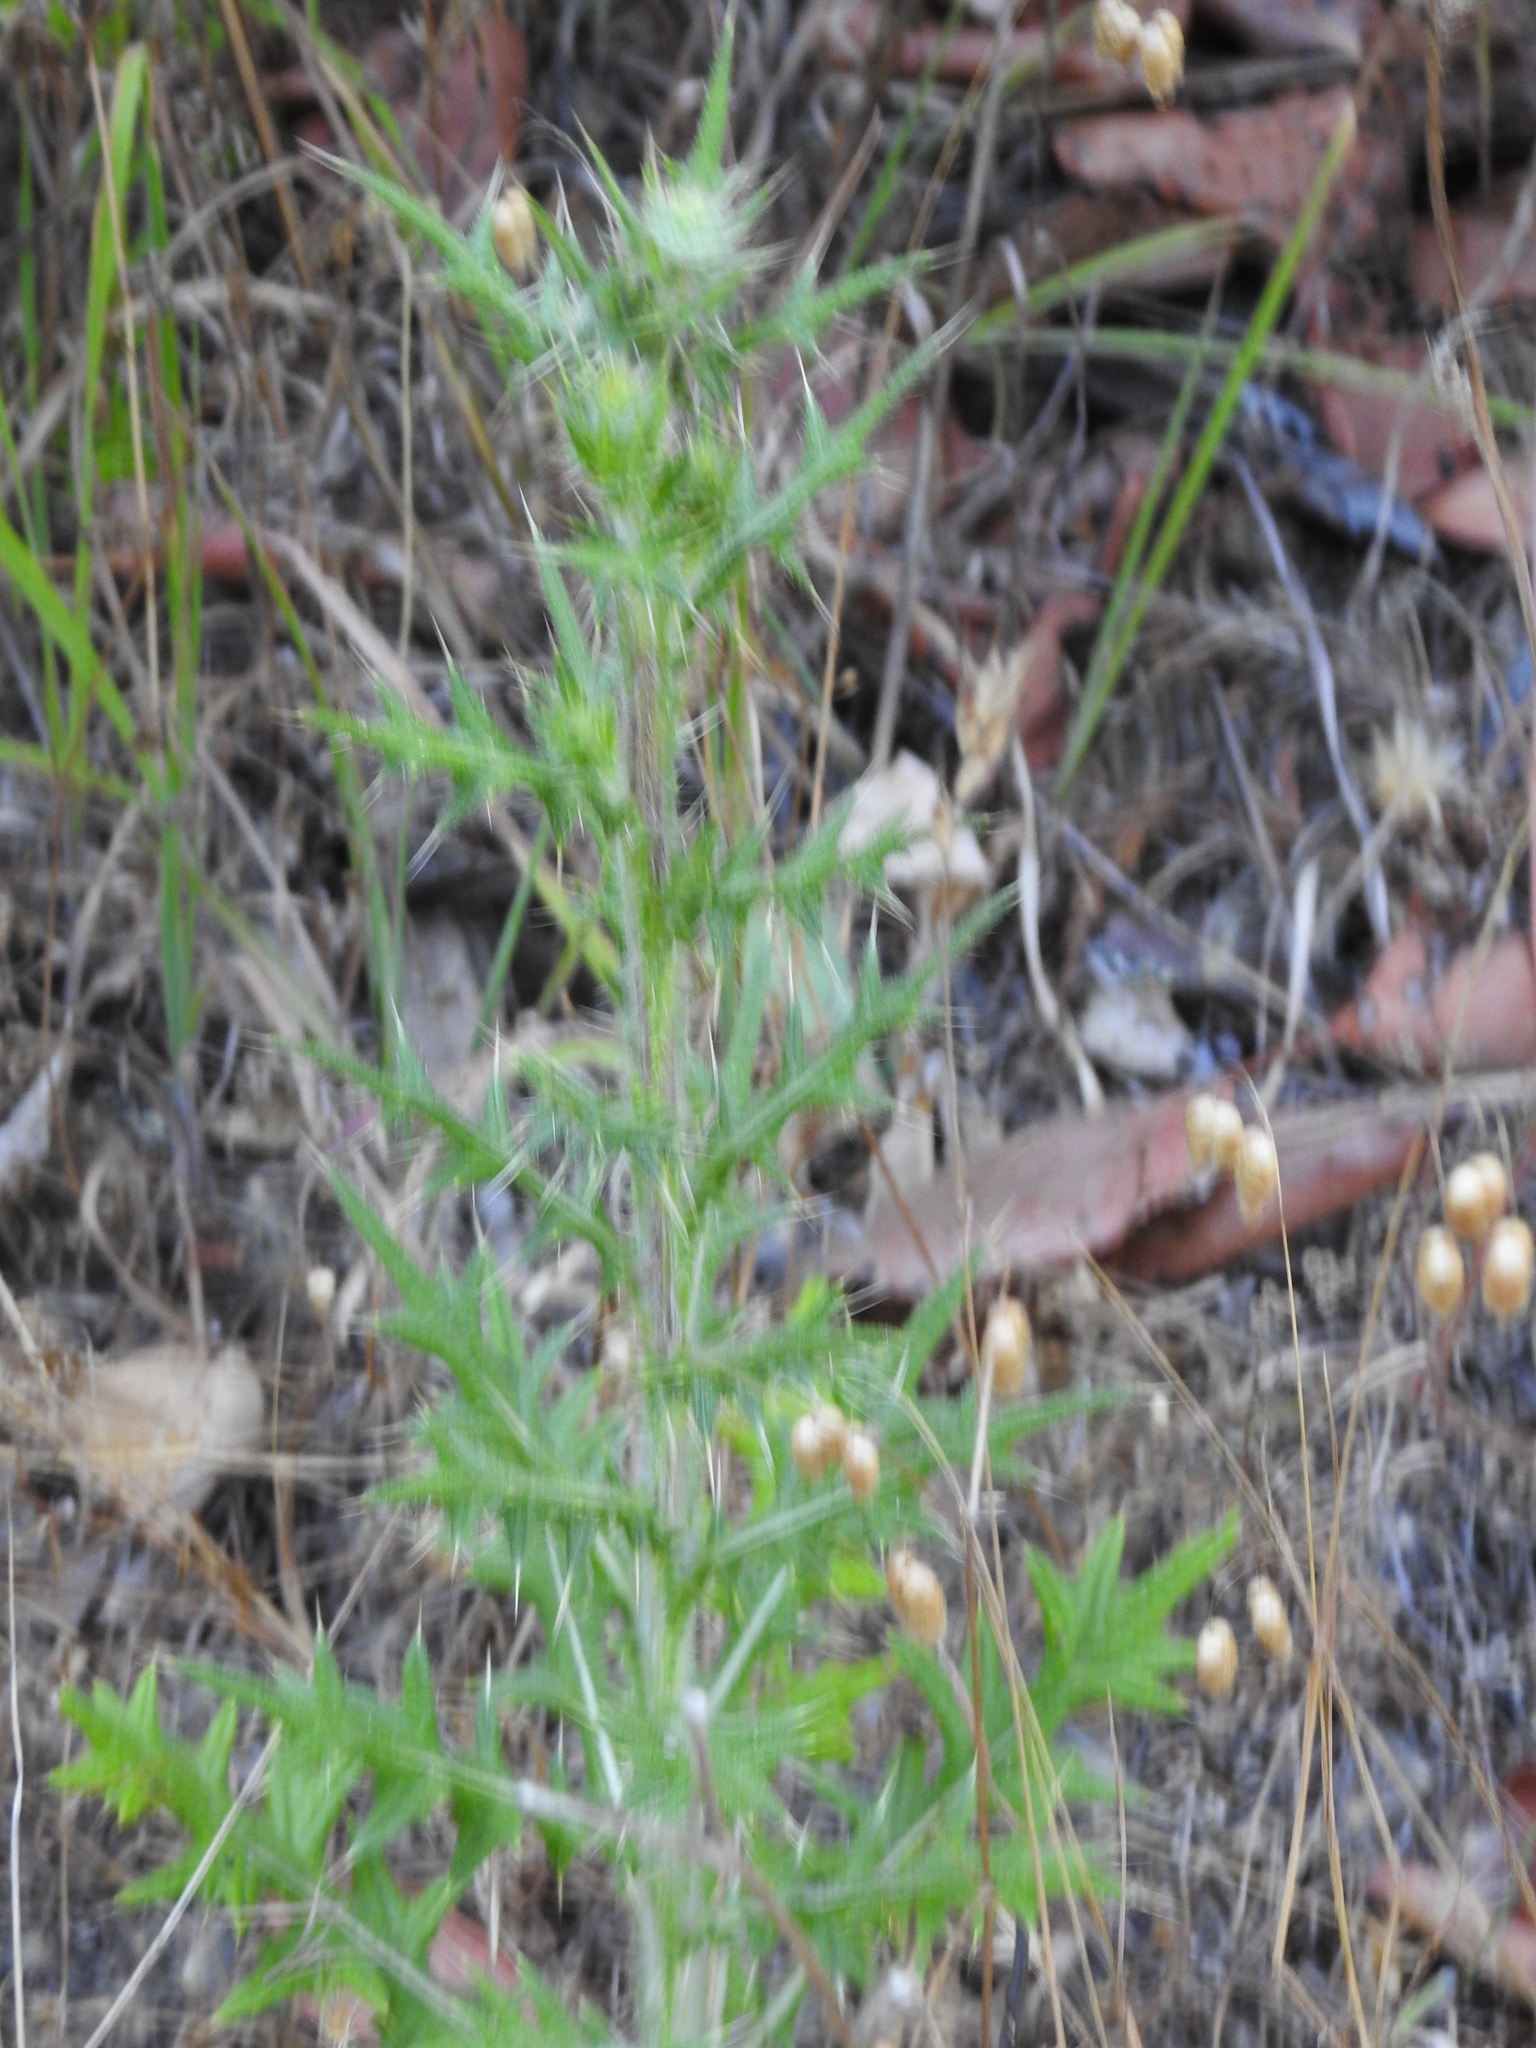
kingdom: Plantae
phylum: Tracheophyta
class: Magnoliopsida
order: Asterales
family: Asteraceae
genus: Cirsium
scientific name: Cirsium vulgare
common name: Bull thistle
